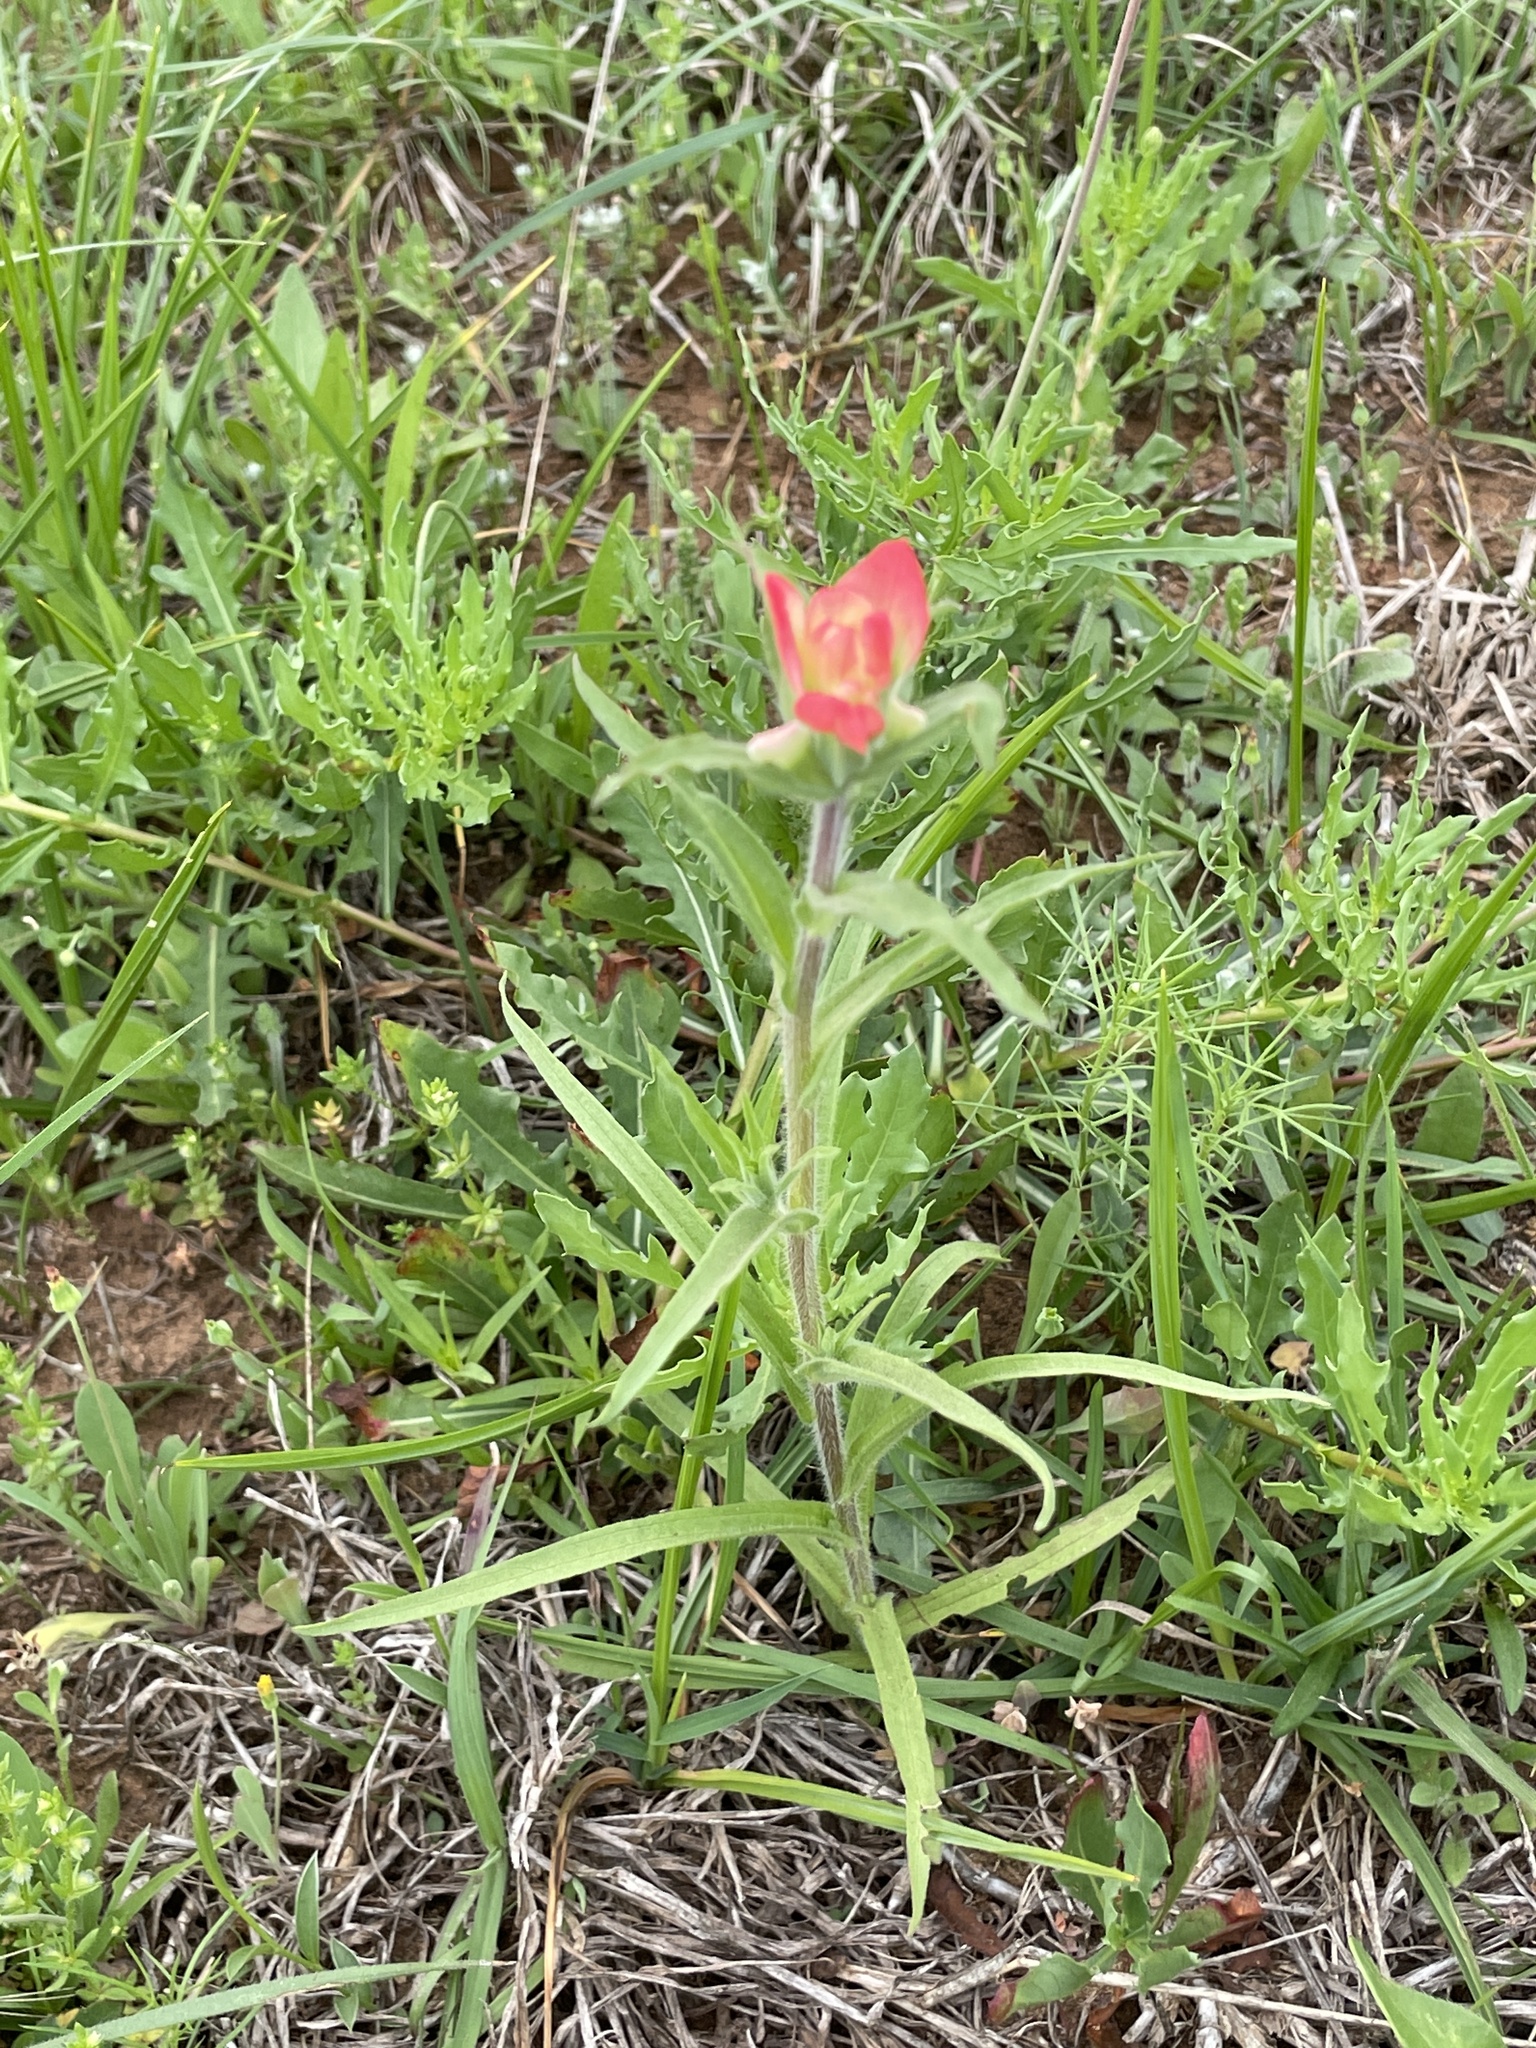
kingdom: Plantae
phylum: Tracheophyta
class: Magnoliopsida
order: Lamiales
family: Orobanchaceae
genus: Castilleja
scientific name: Castilleja indivisa
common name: Texas paintbrush
